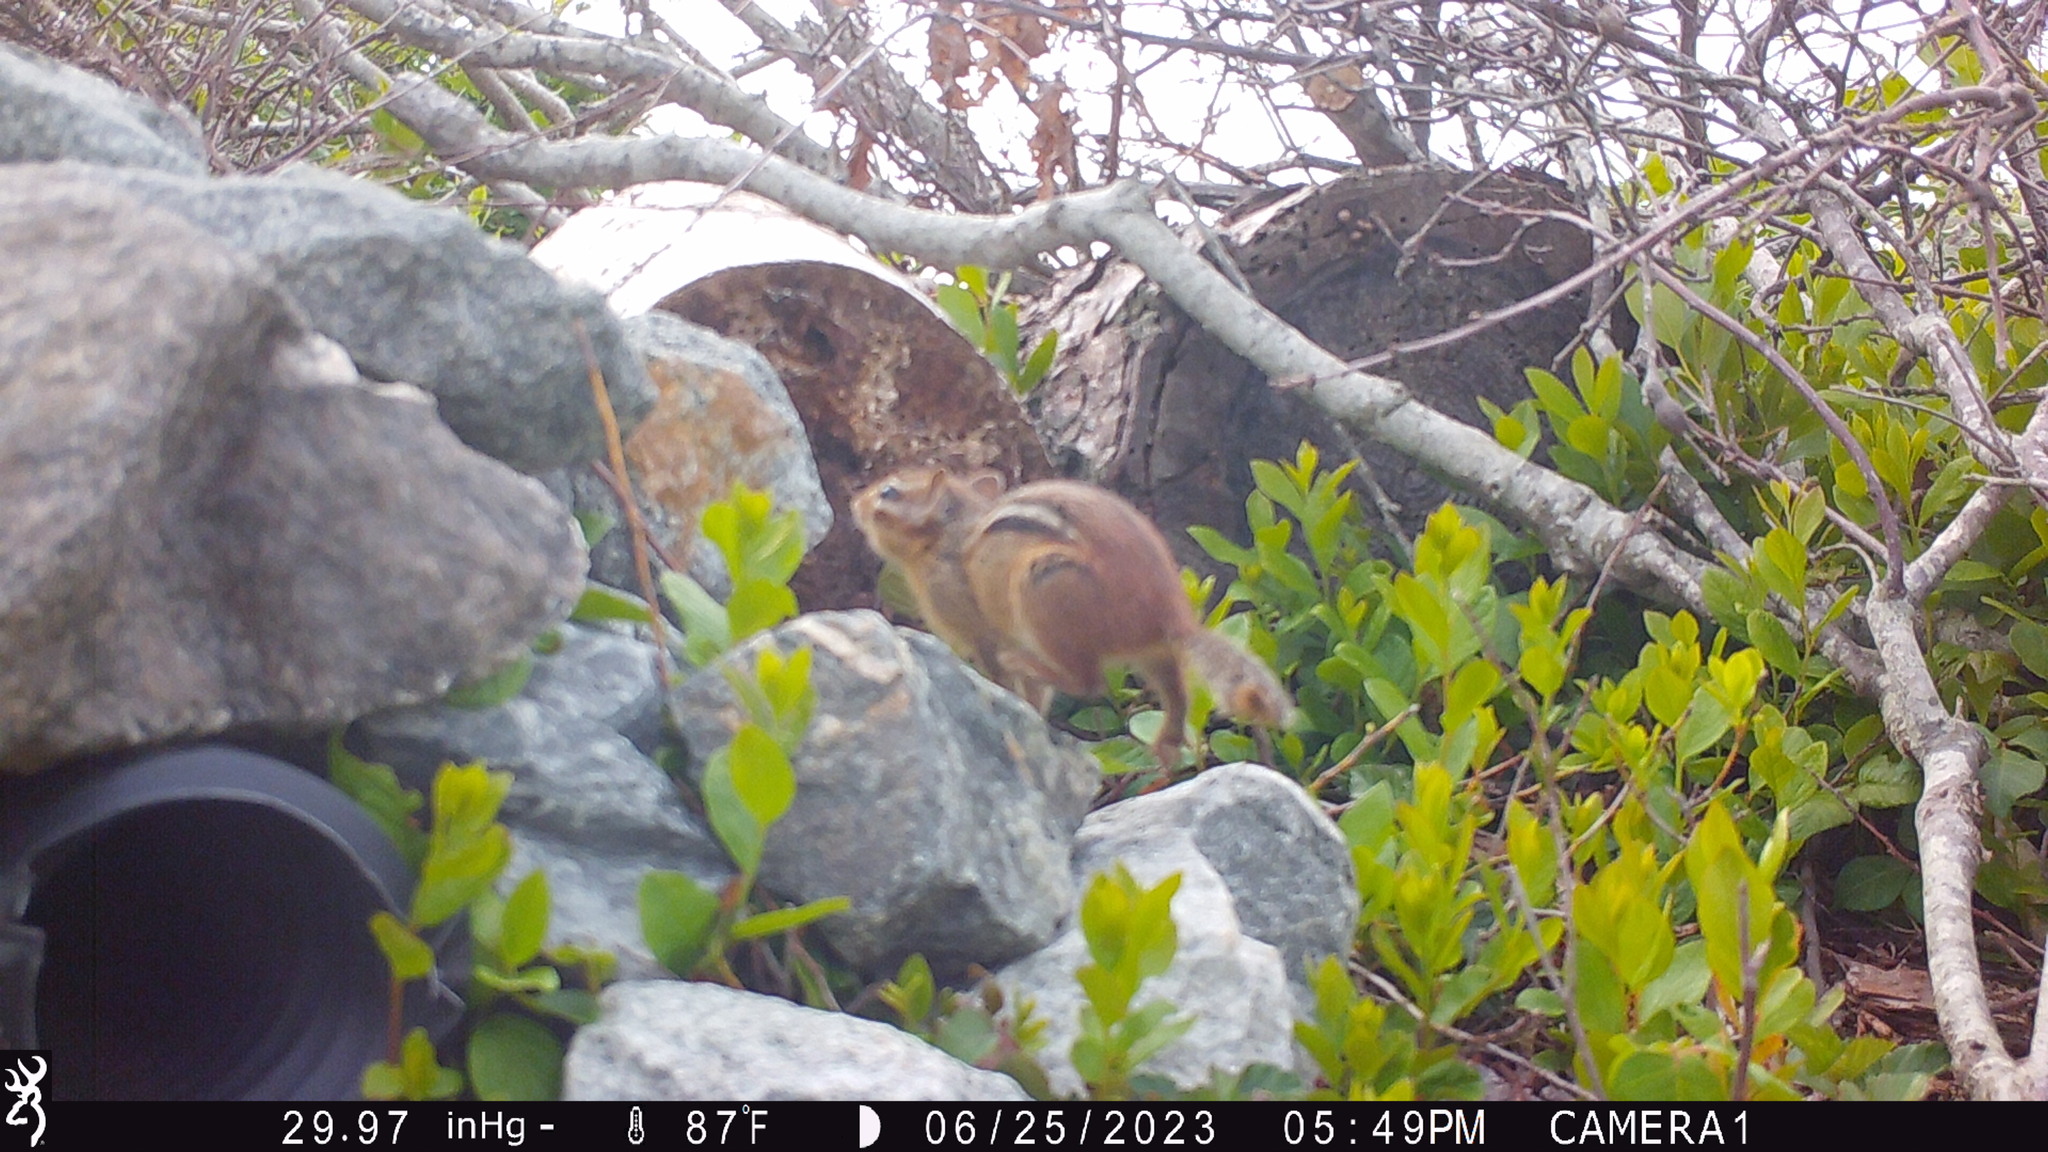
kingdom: Animalia
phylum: Chordata
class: Mammalia
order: Rodentia
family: Sciuridae
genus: Tamias
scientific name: Tamias striatus
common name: Eastern chipmunk
